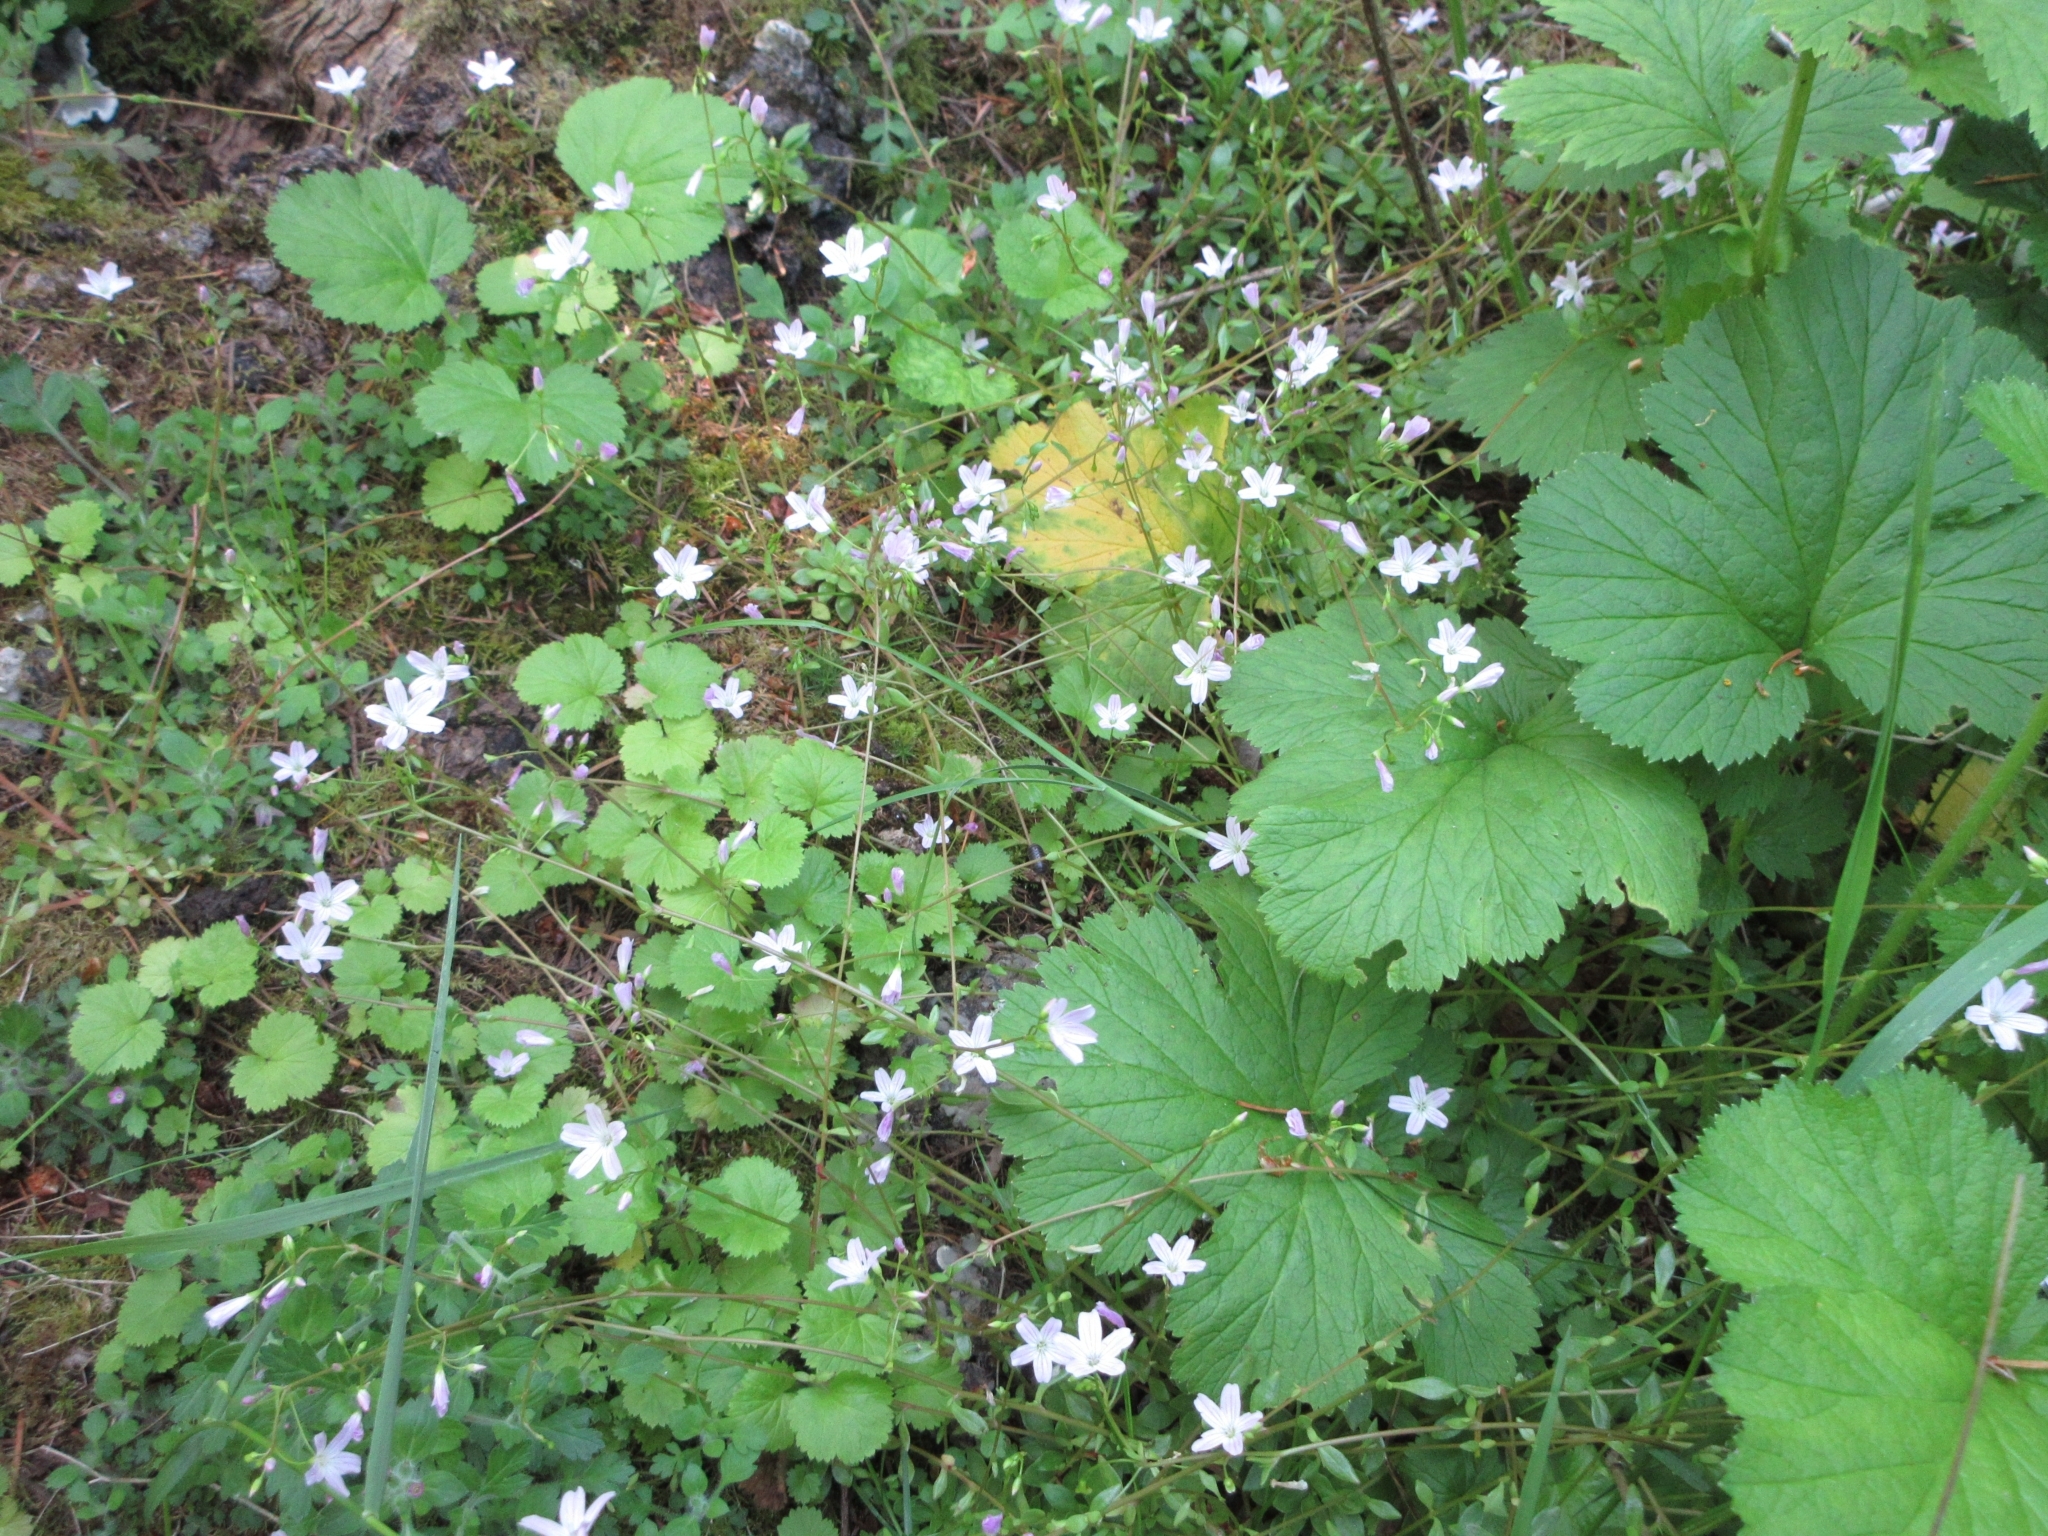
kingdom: Plantae
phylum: Tracheophyta
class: Magnoliopsida
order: Caryophyllales
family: Montiaceae
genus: Montia
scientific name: Montia parvifolia
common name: Small-leaved blinks
